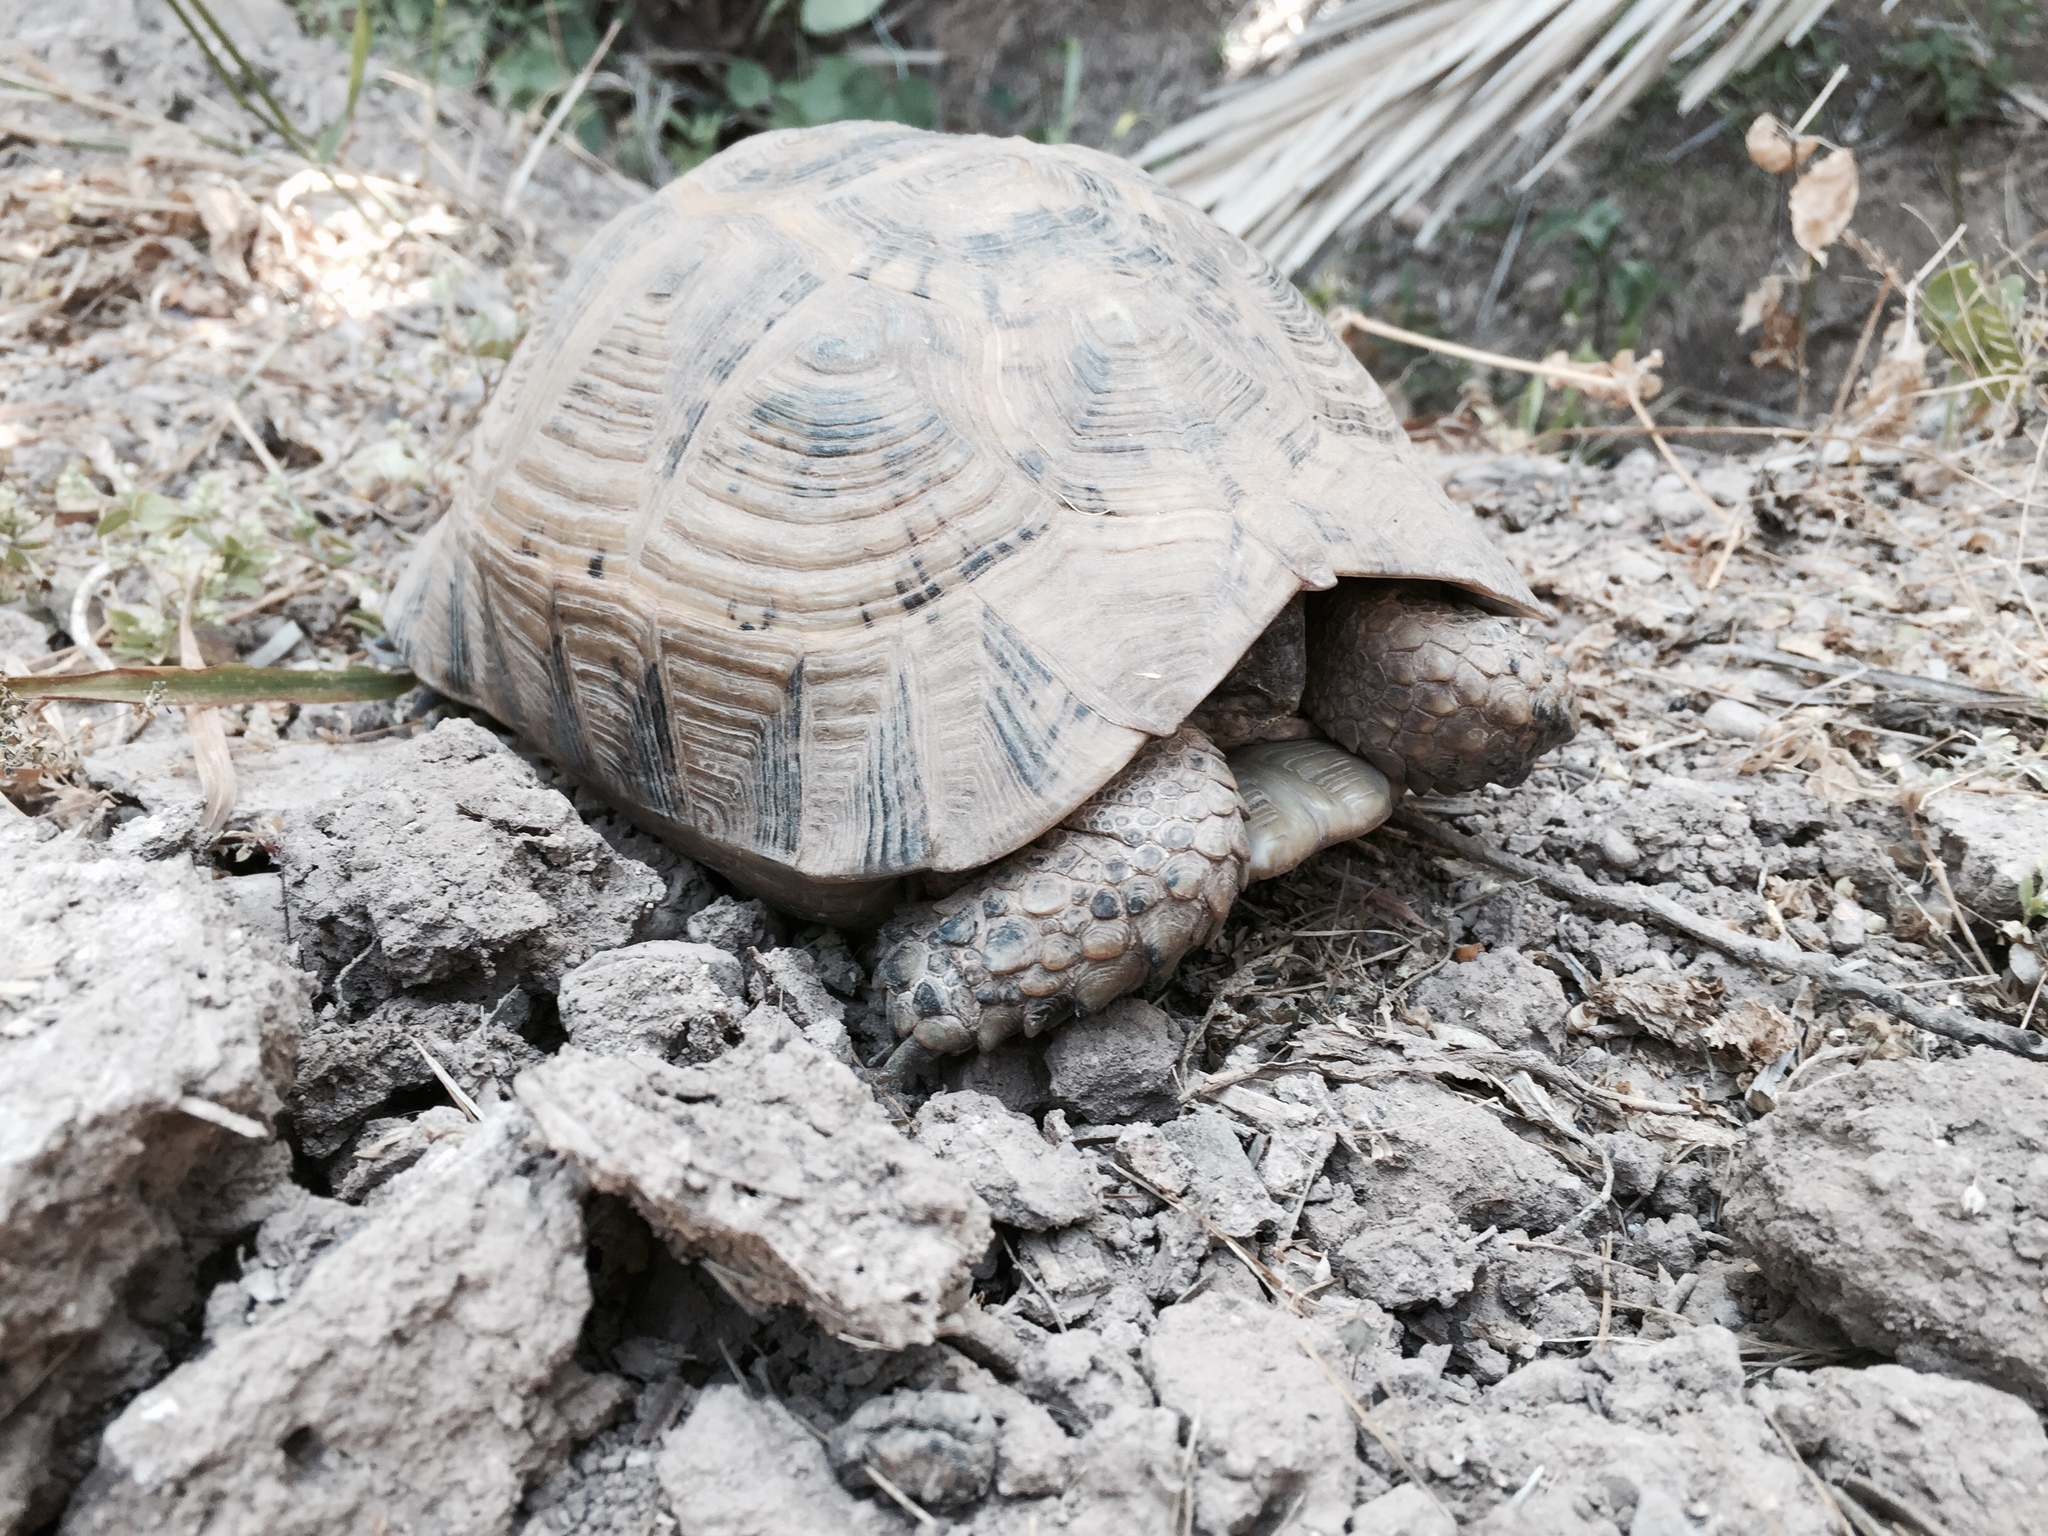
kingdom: Animalia
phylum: Chordata
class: Testudines
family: Testudinidae
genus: Testudo
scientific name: Testudo graeca
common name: Common tortoise
